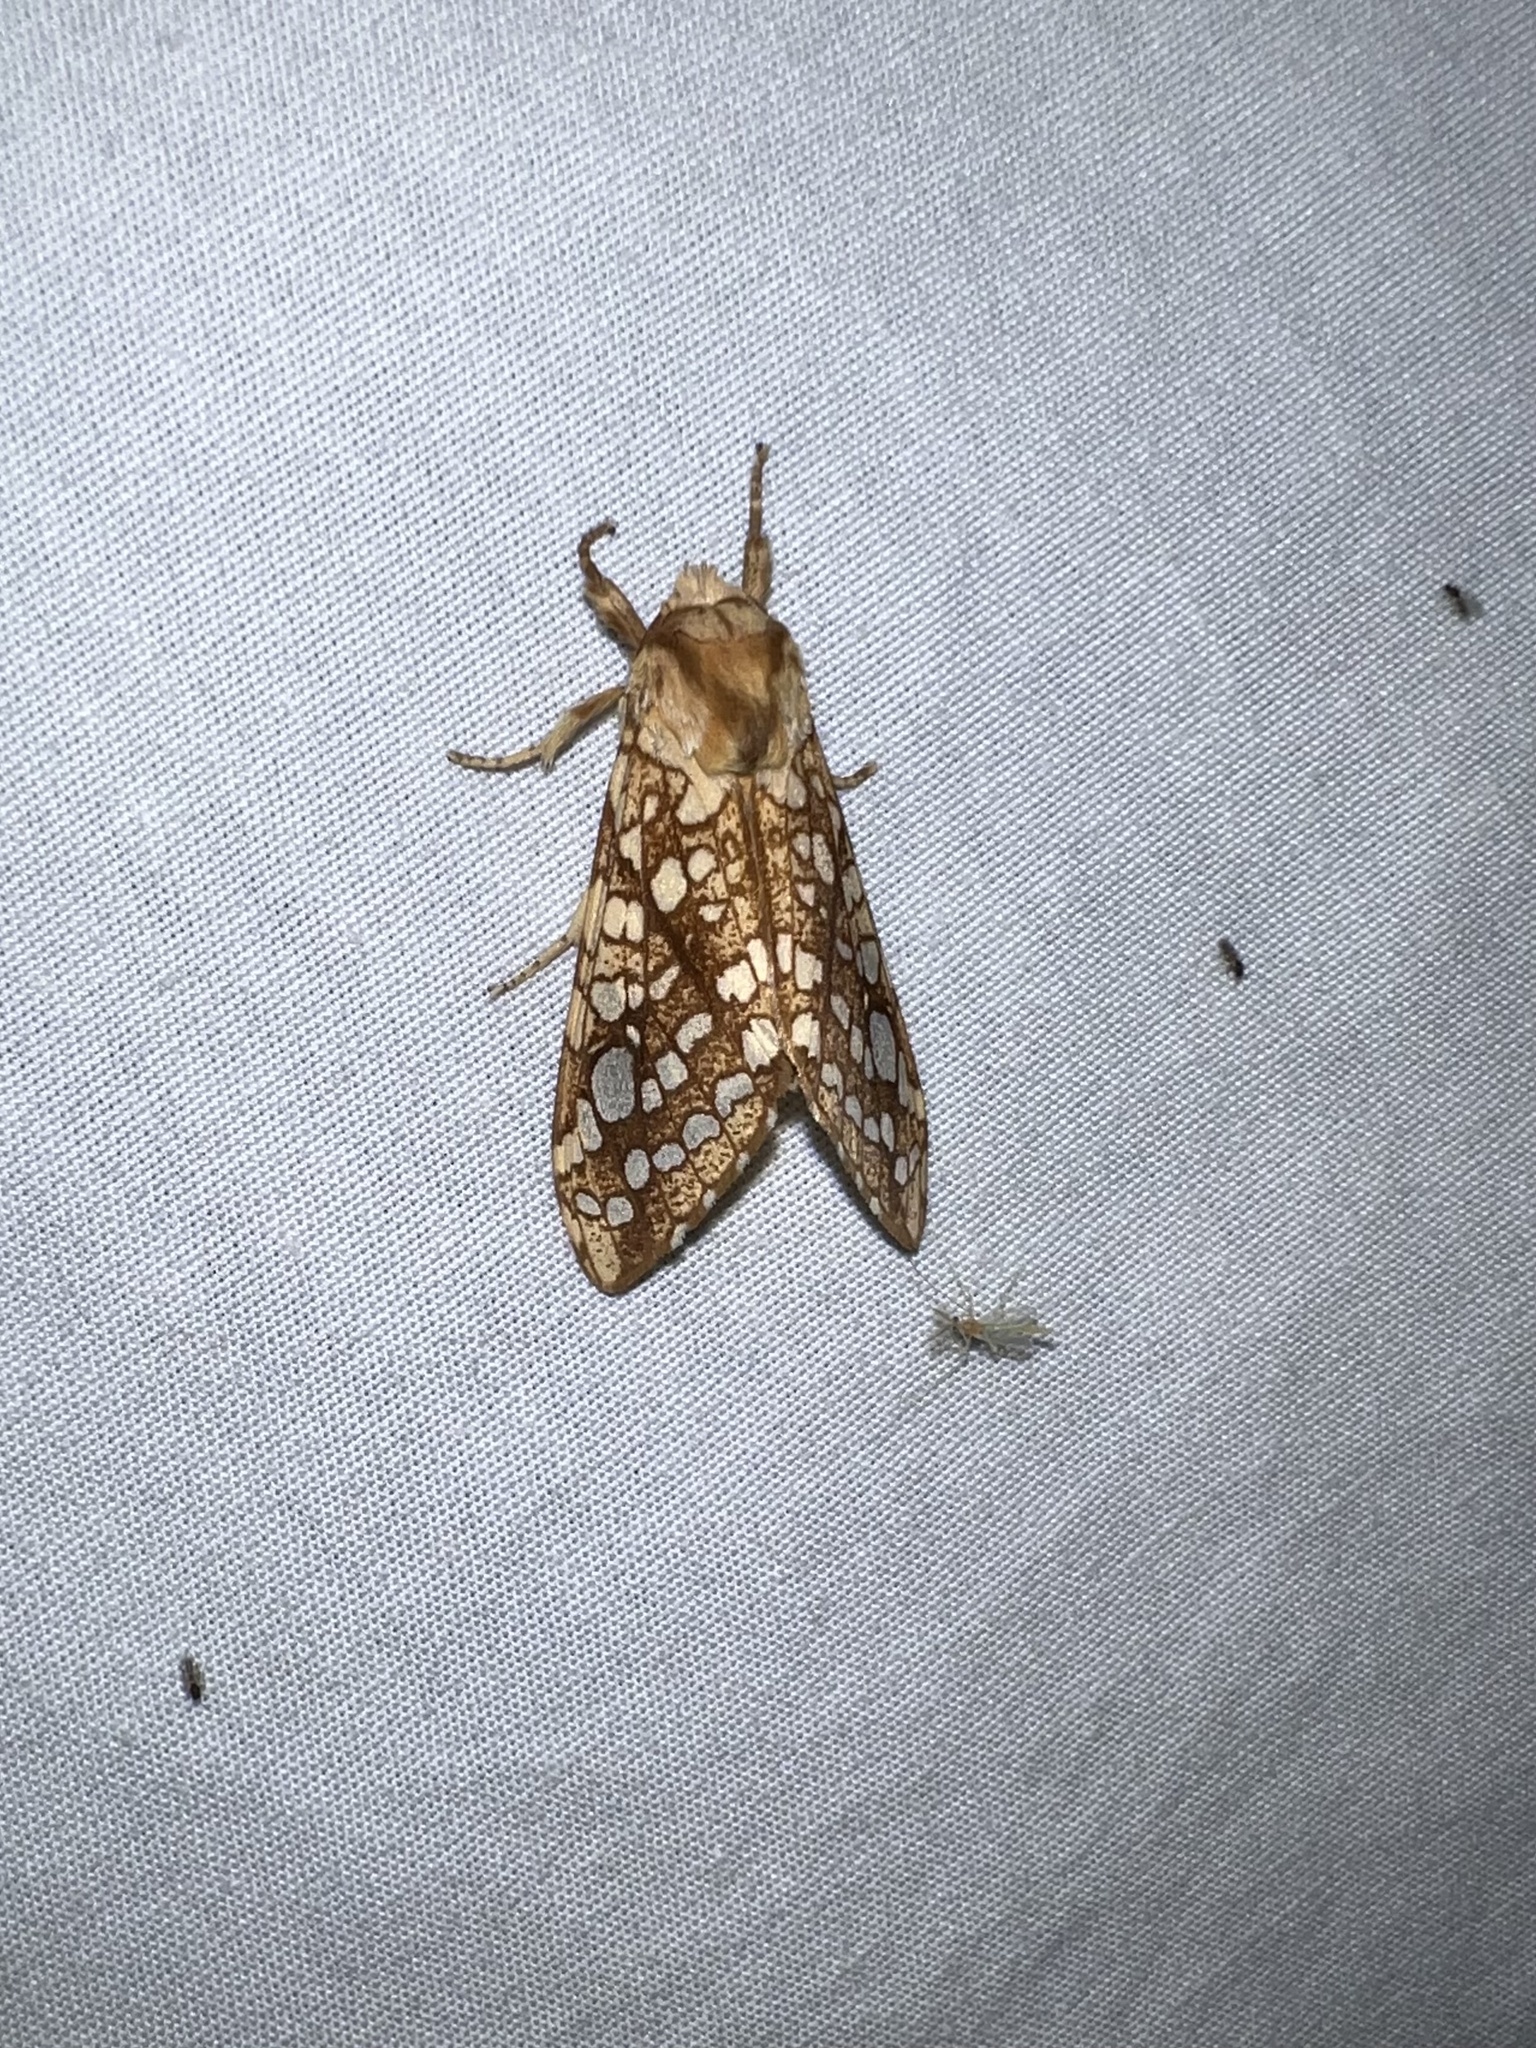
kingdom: Animalia
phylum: Arthropoda
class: Insecta
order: Lepidoptera
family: Erebidae
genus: Lophocampa
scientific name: Lophocampa caryae
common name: Hickory tussock moth
